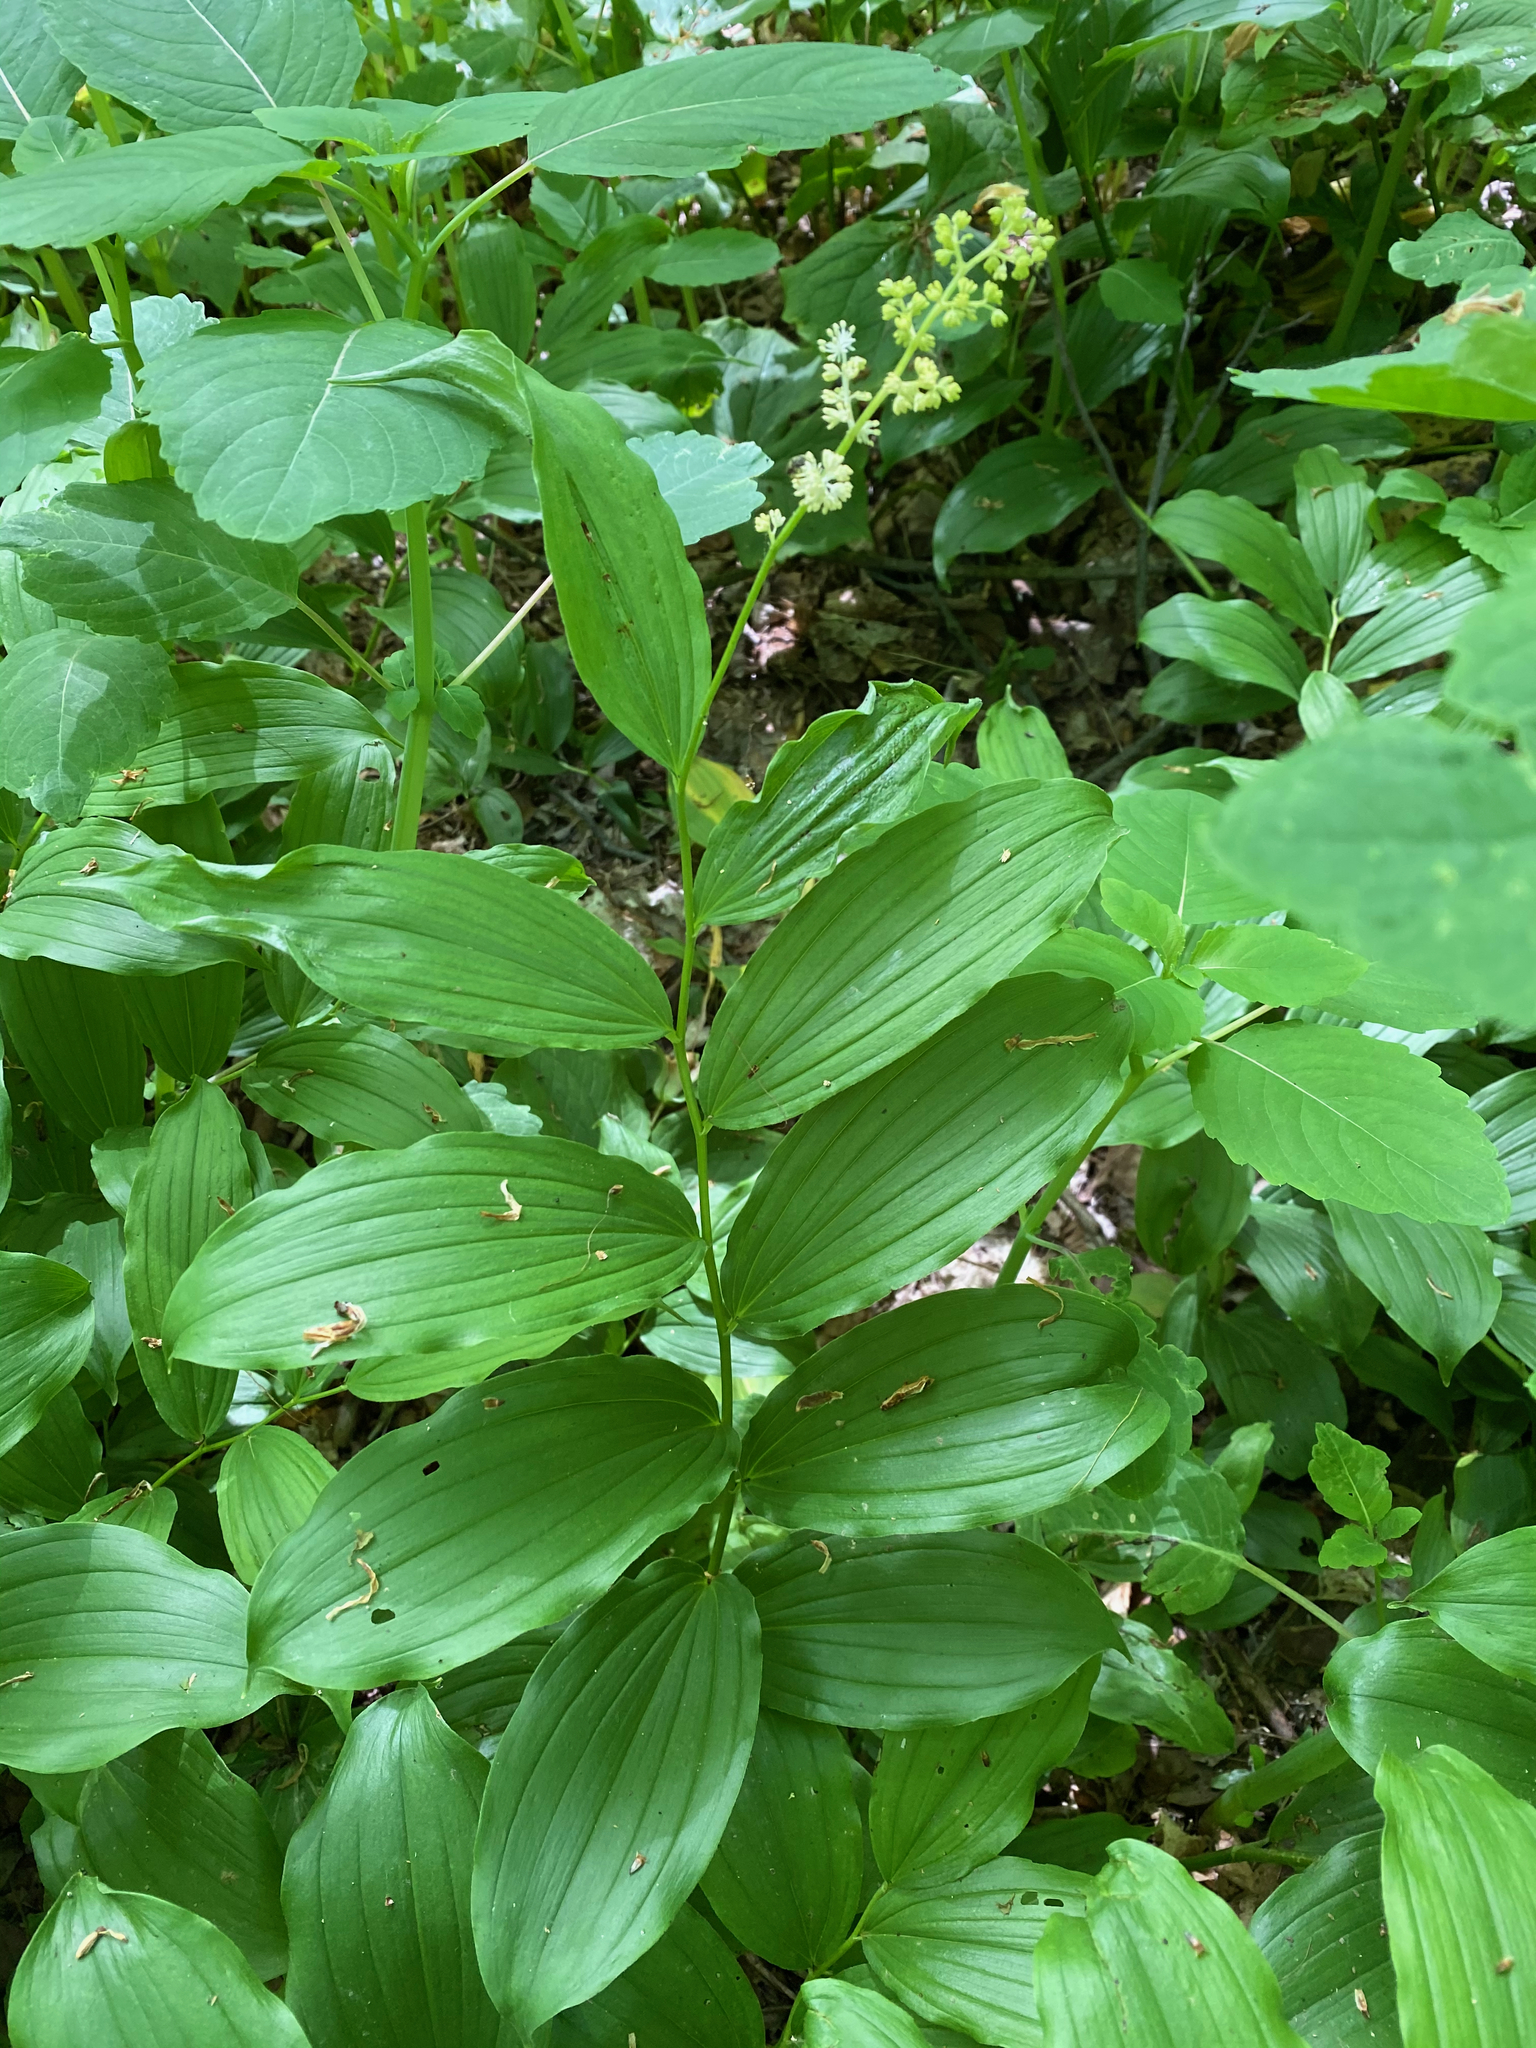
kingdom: Plantae
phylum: Tracheophyta
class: Liliopsida
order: Asparagales
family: Asparagaceae
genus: Maianthemum
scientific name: Maianthemum racemosum
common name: False spikenard
